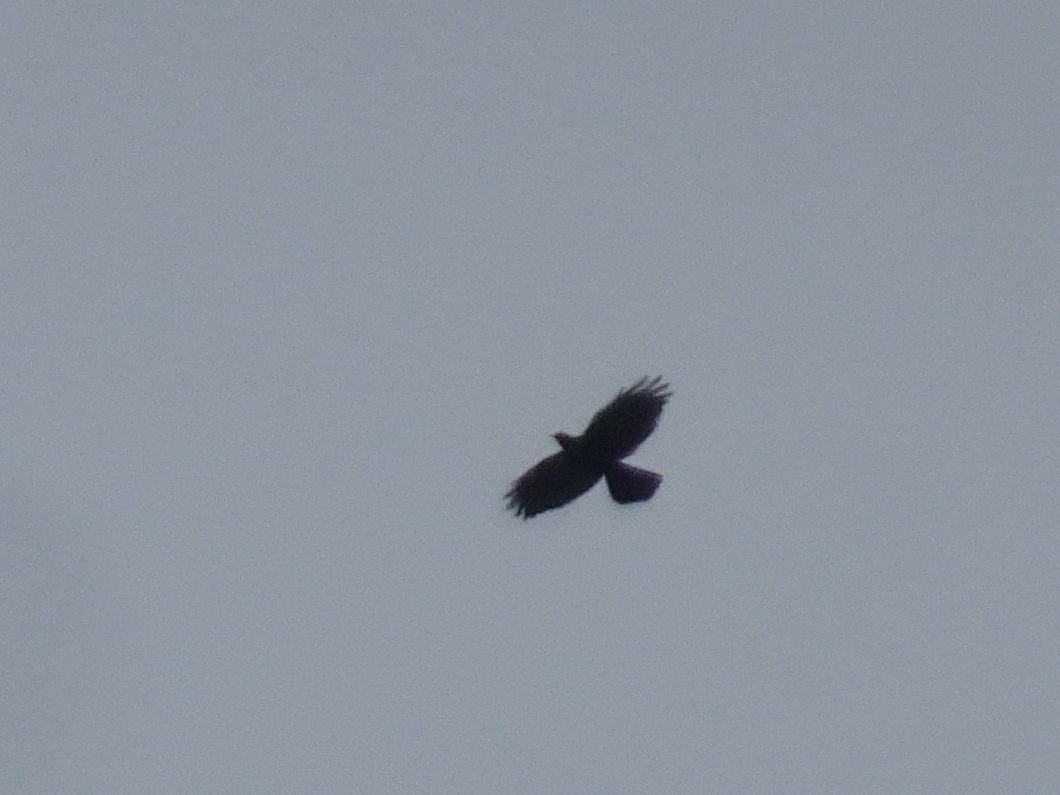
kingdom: Animalia
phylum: Chordata
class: Aves
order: Passeriformes
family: Corvidae
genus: Pyrrhocorax
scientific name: Pyrrhocorax graculus
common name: Alpine chough
